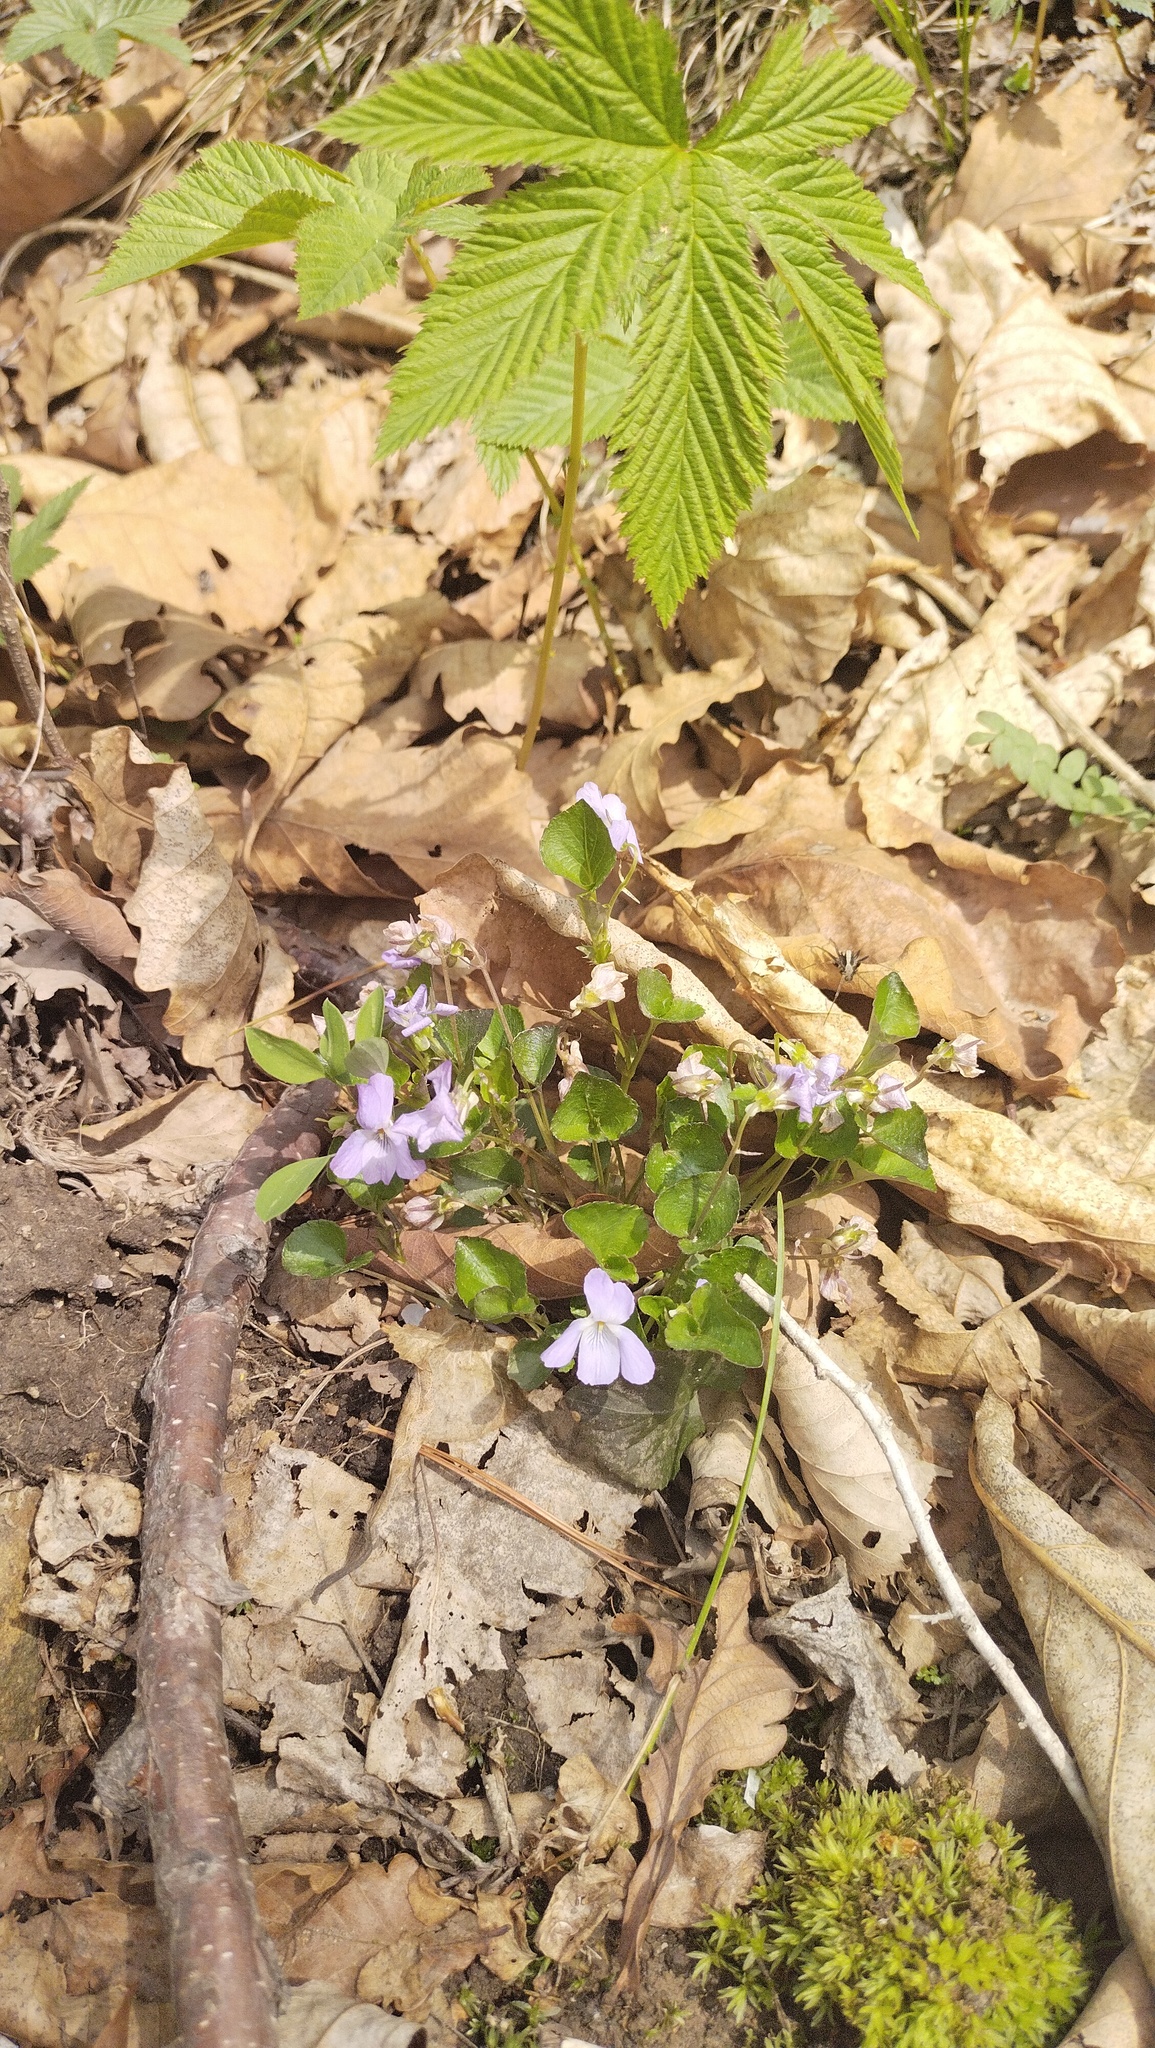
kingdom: Plantae
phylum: Tracheophyta
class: Magnoliopsida
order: Malpighiales
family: Violaceae
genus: Viola
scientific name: Viola sacchalinensis
